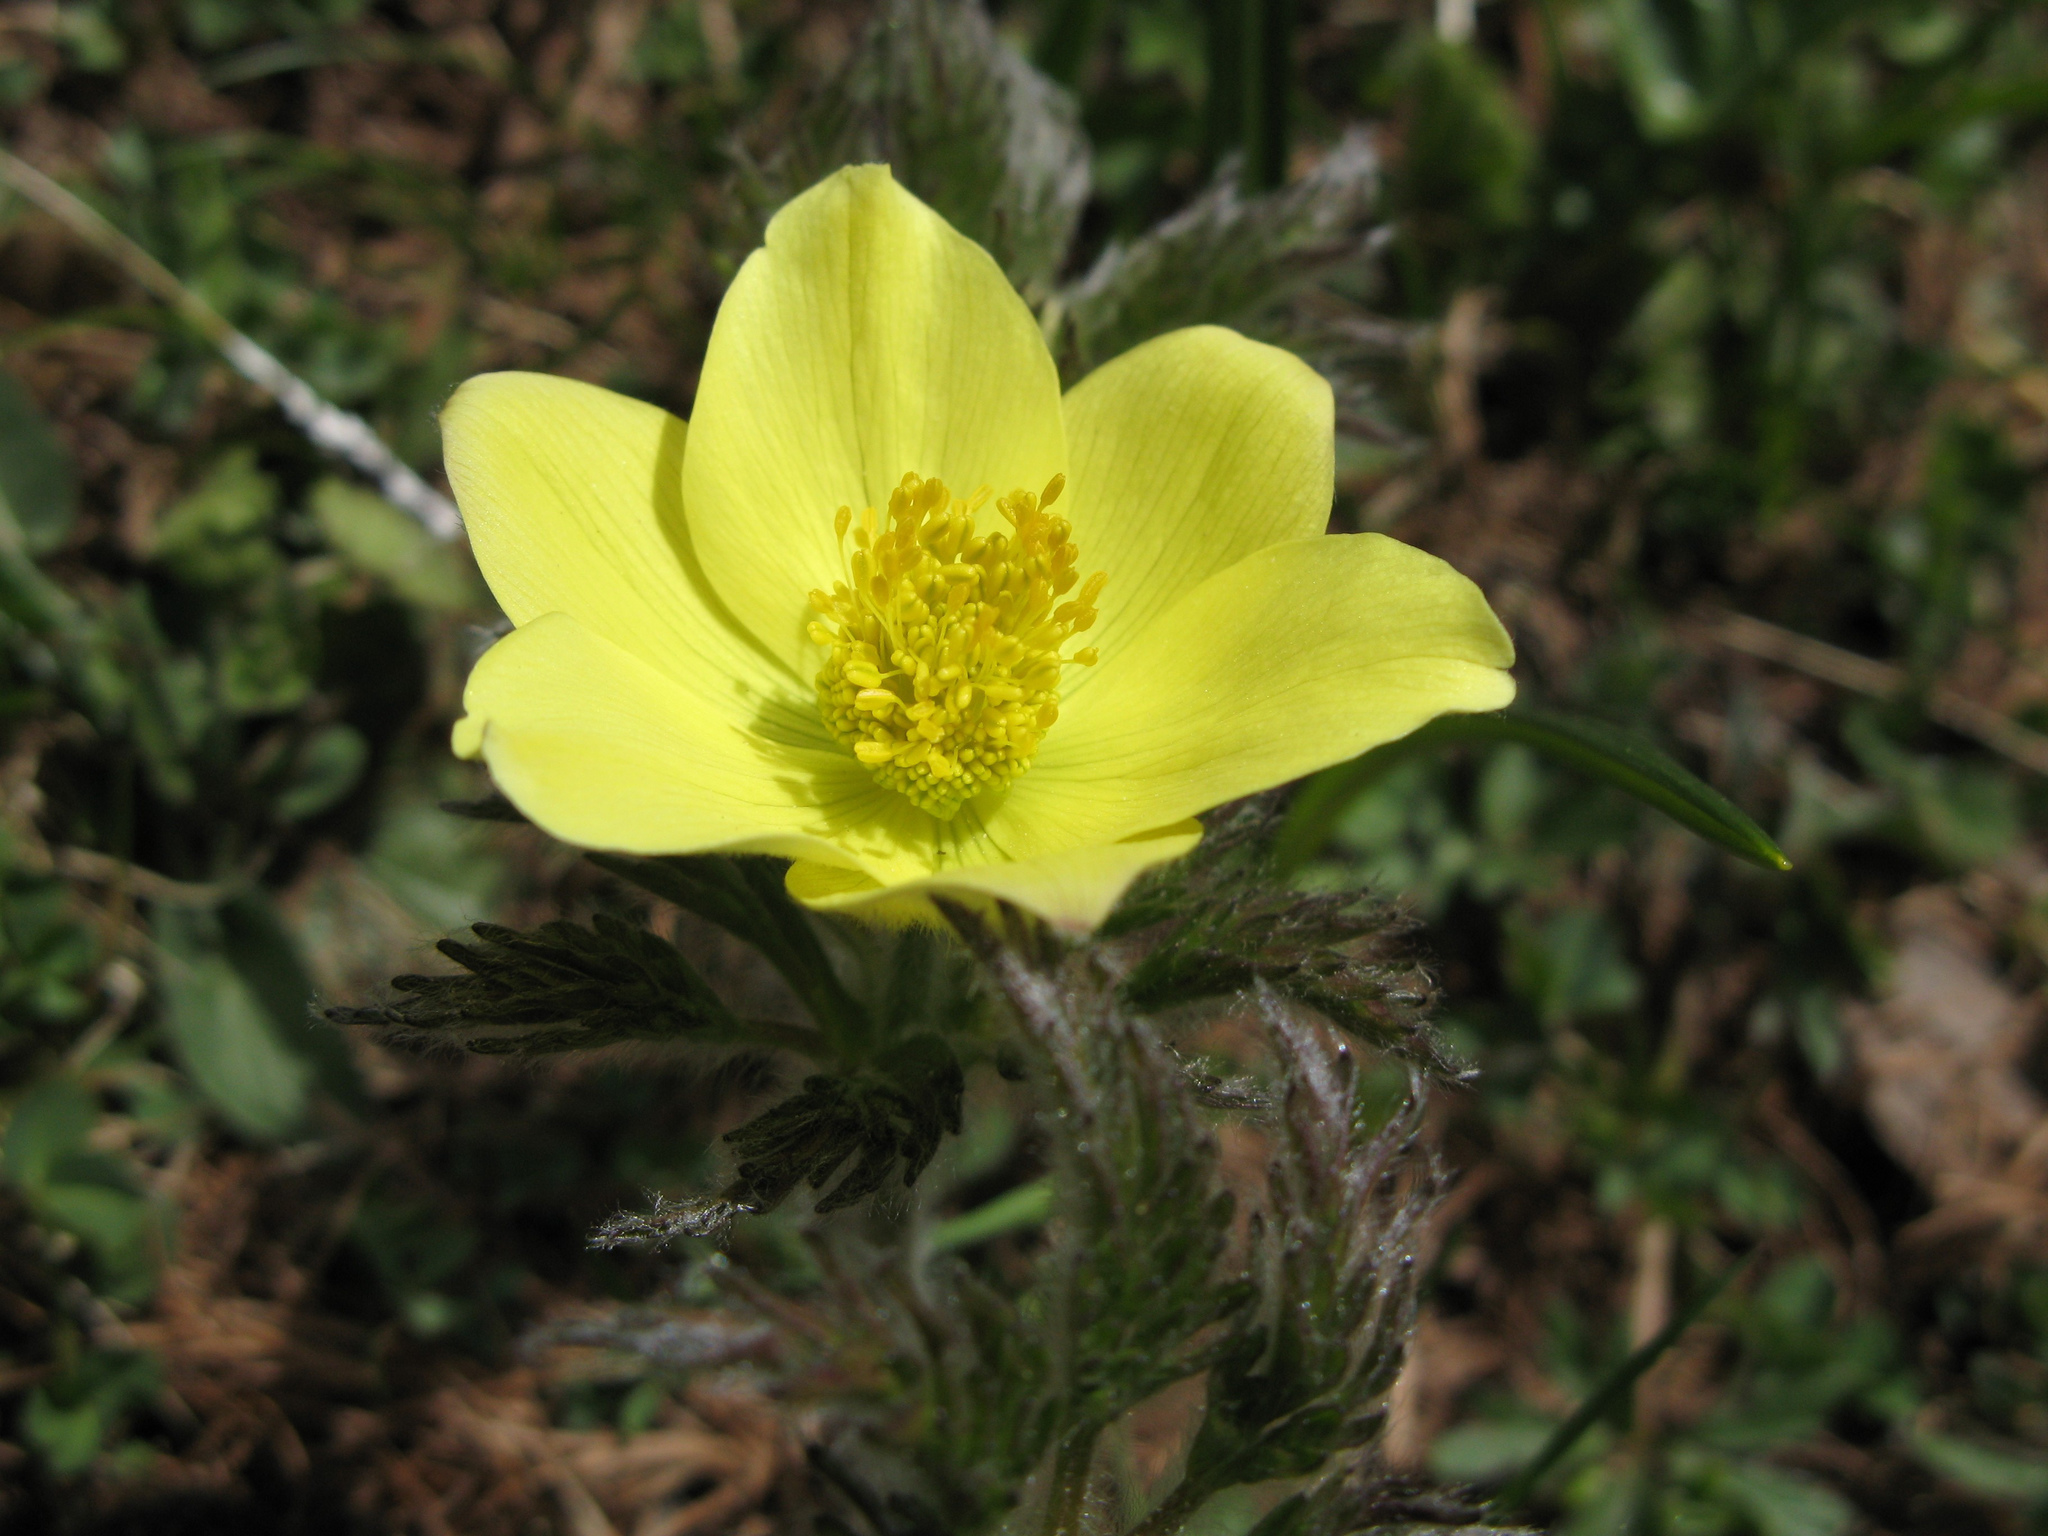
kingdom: Plantae
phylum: Tracheophyta
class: Magnoliopsida
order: Ranunculales
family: Ranunculaceae
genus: Pulsatilla
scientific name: Pulsatilla alpina
